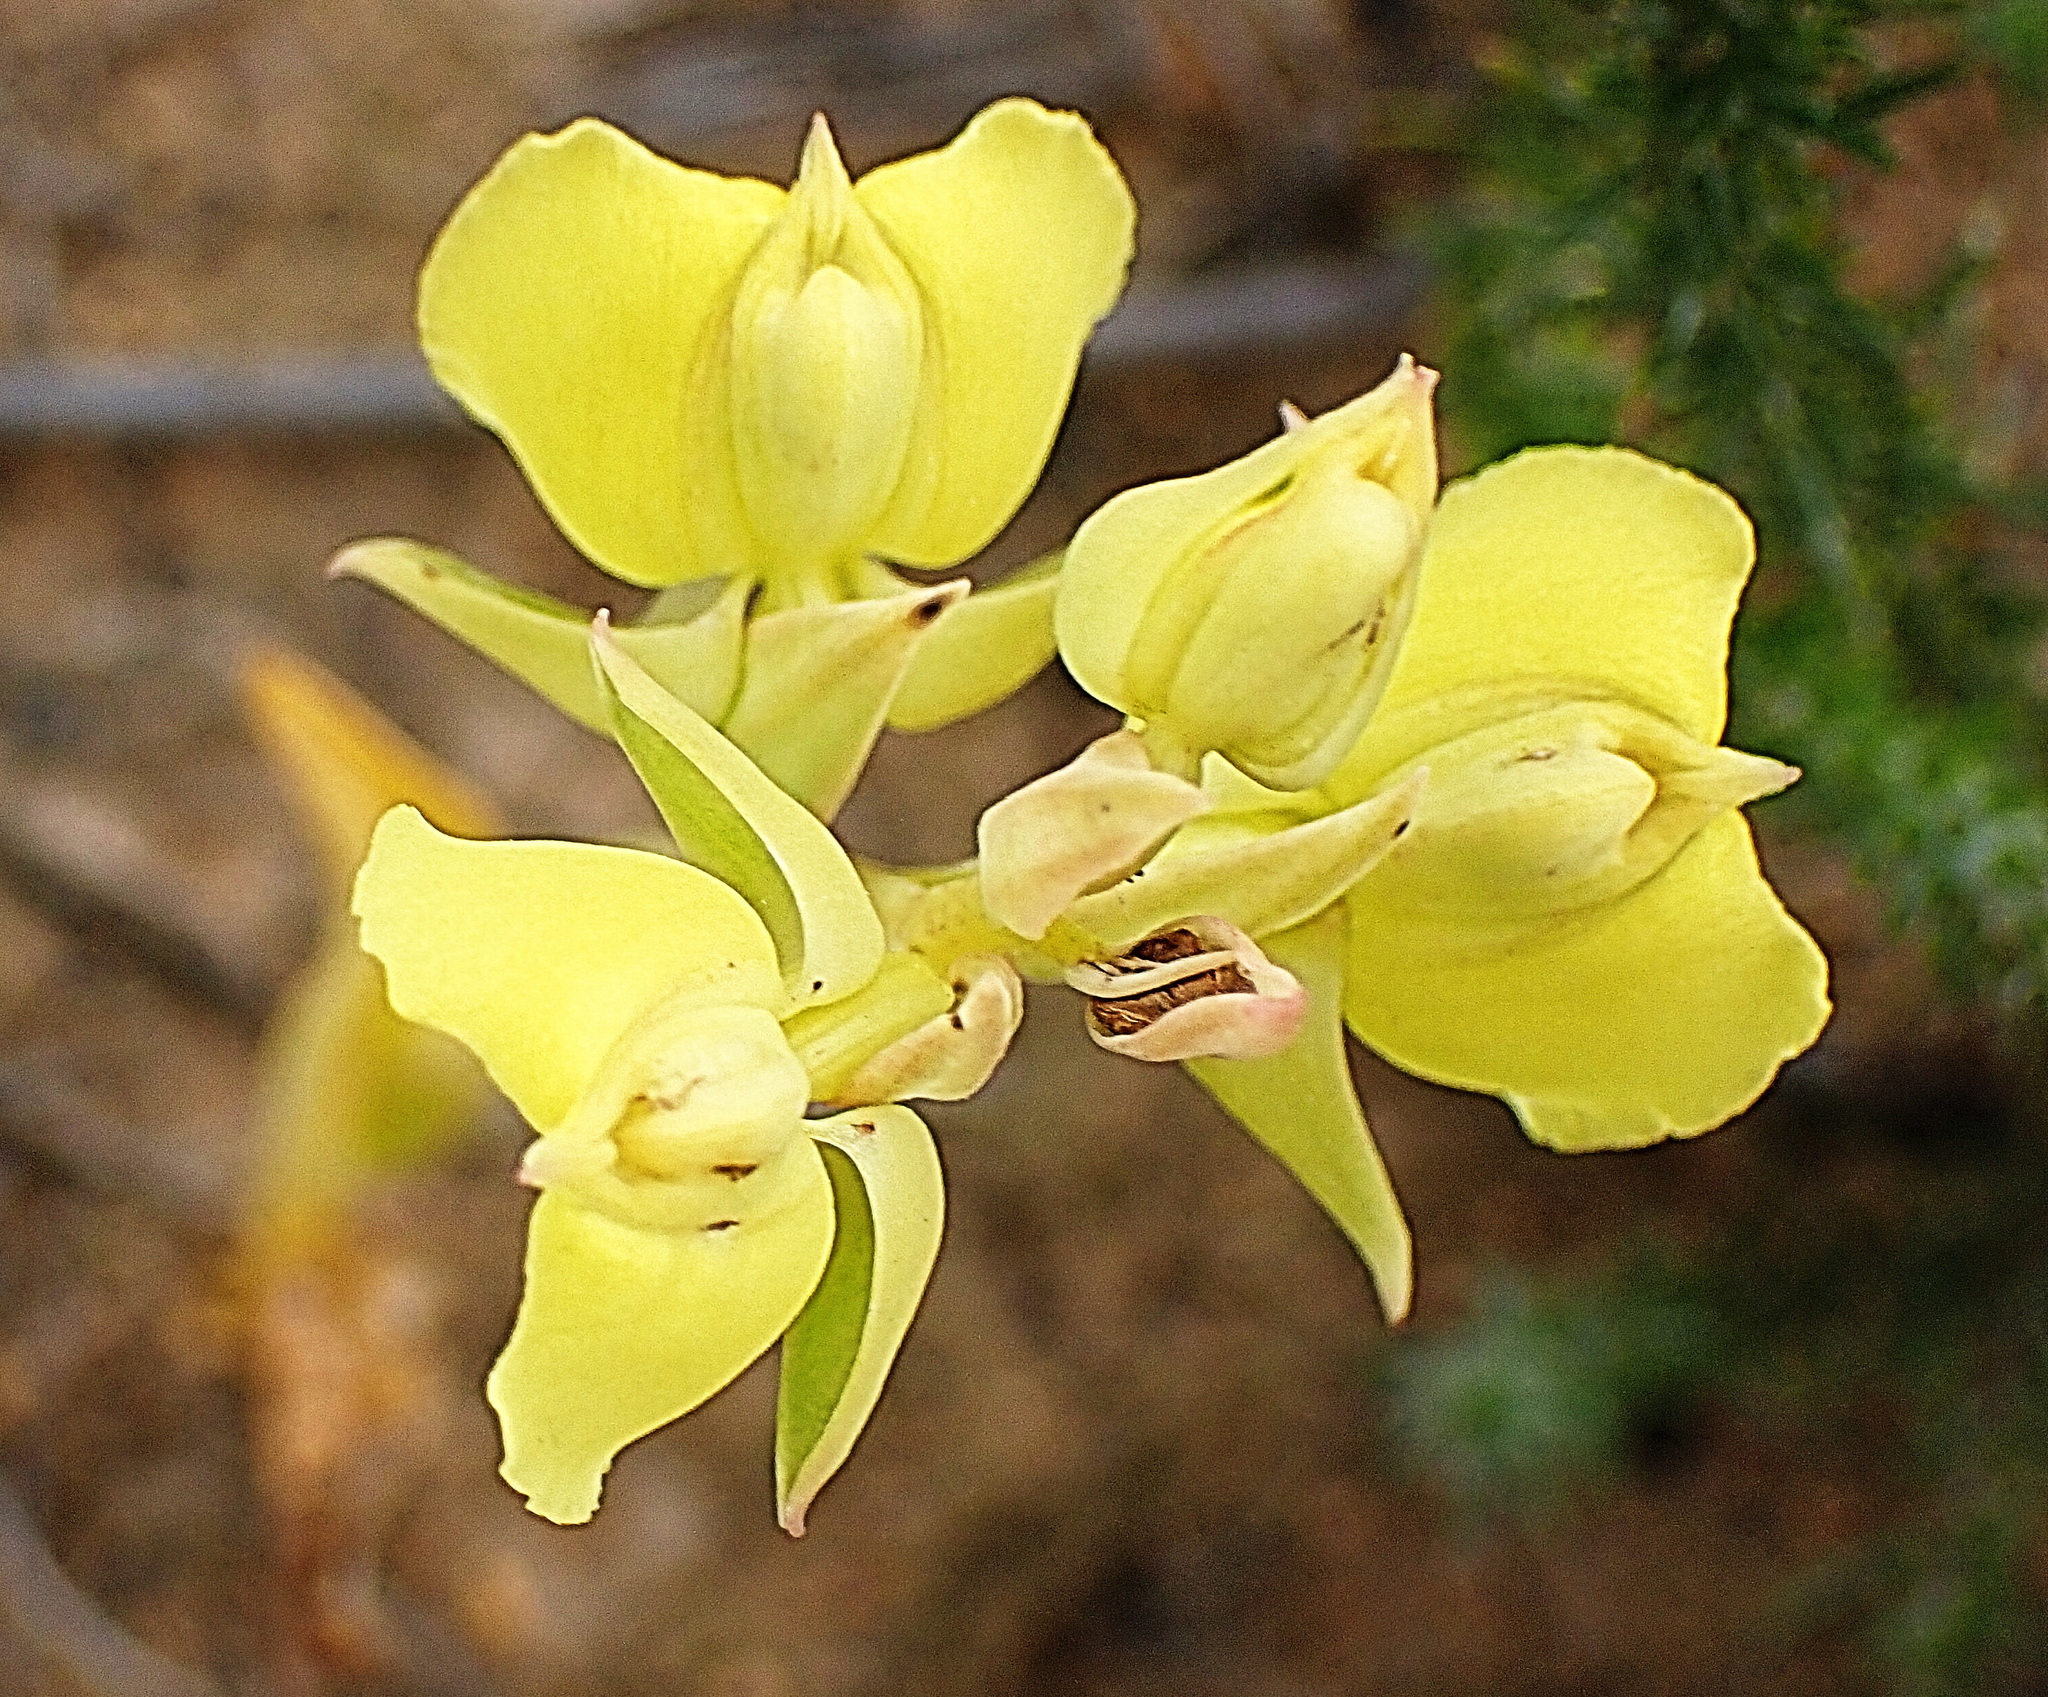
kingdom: Plantae
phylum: Tracheophyta
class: Liliopsida
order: Asparagales
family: Orchidaceae
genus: Pterygodium
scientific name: Pterygodium catholicum
